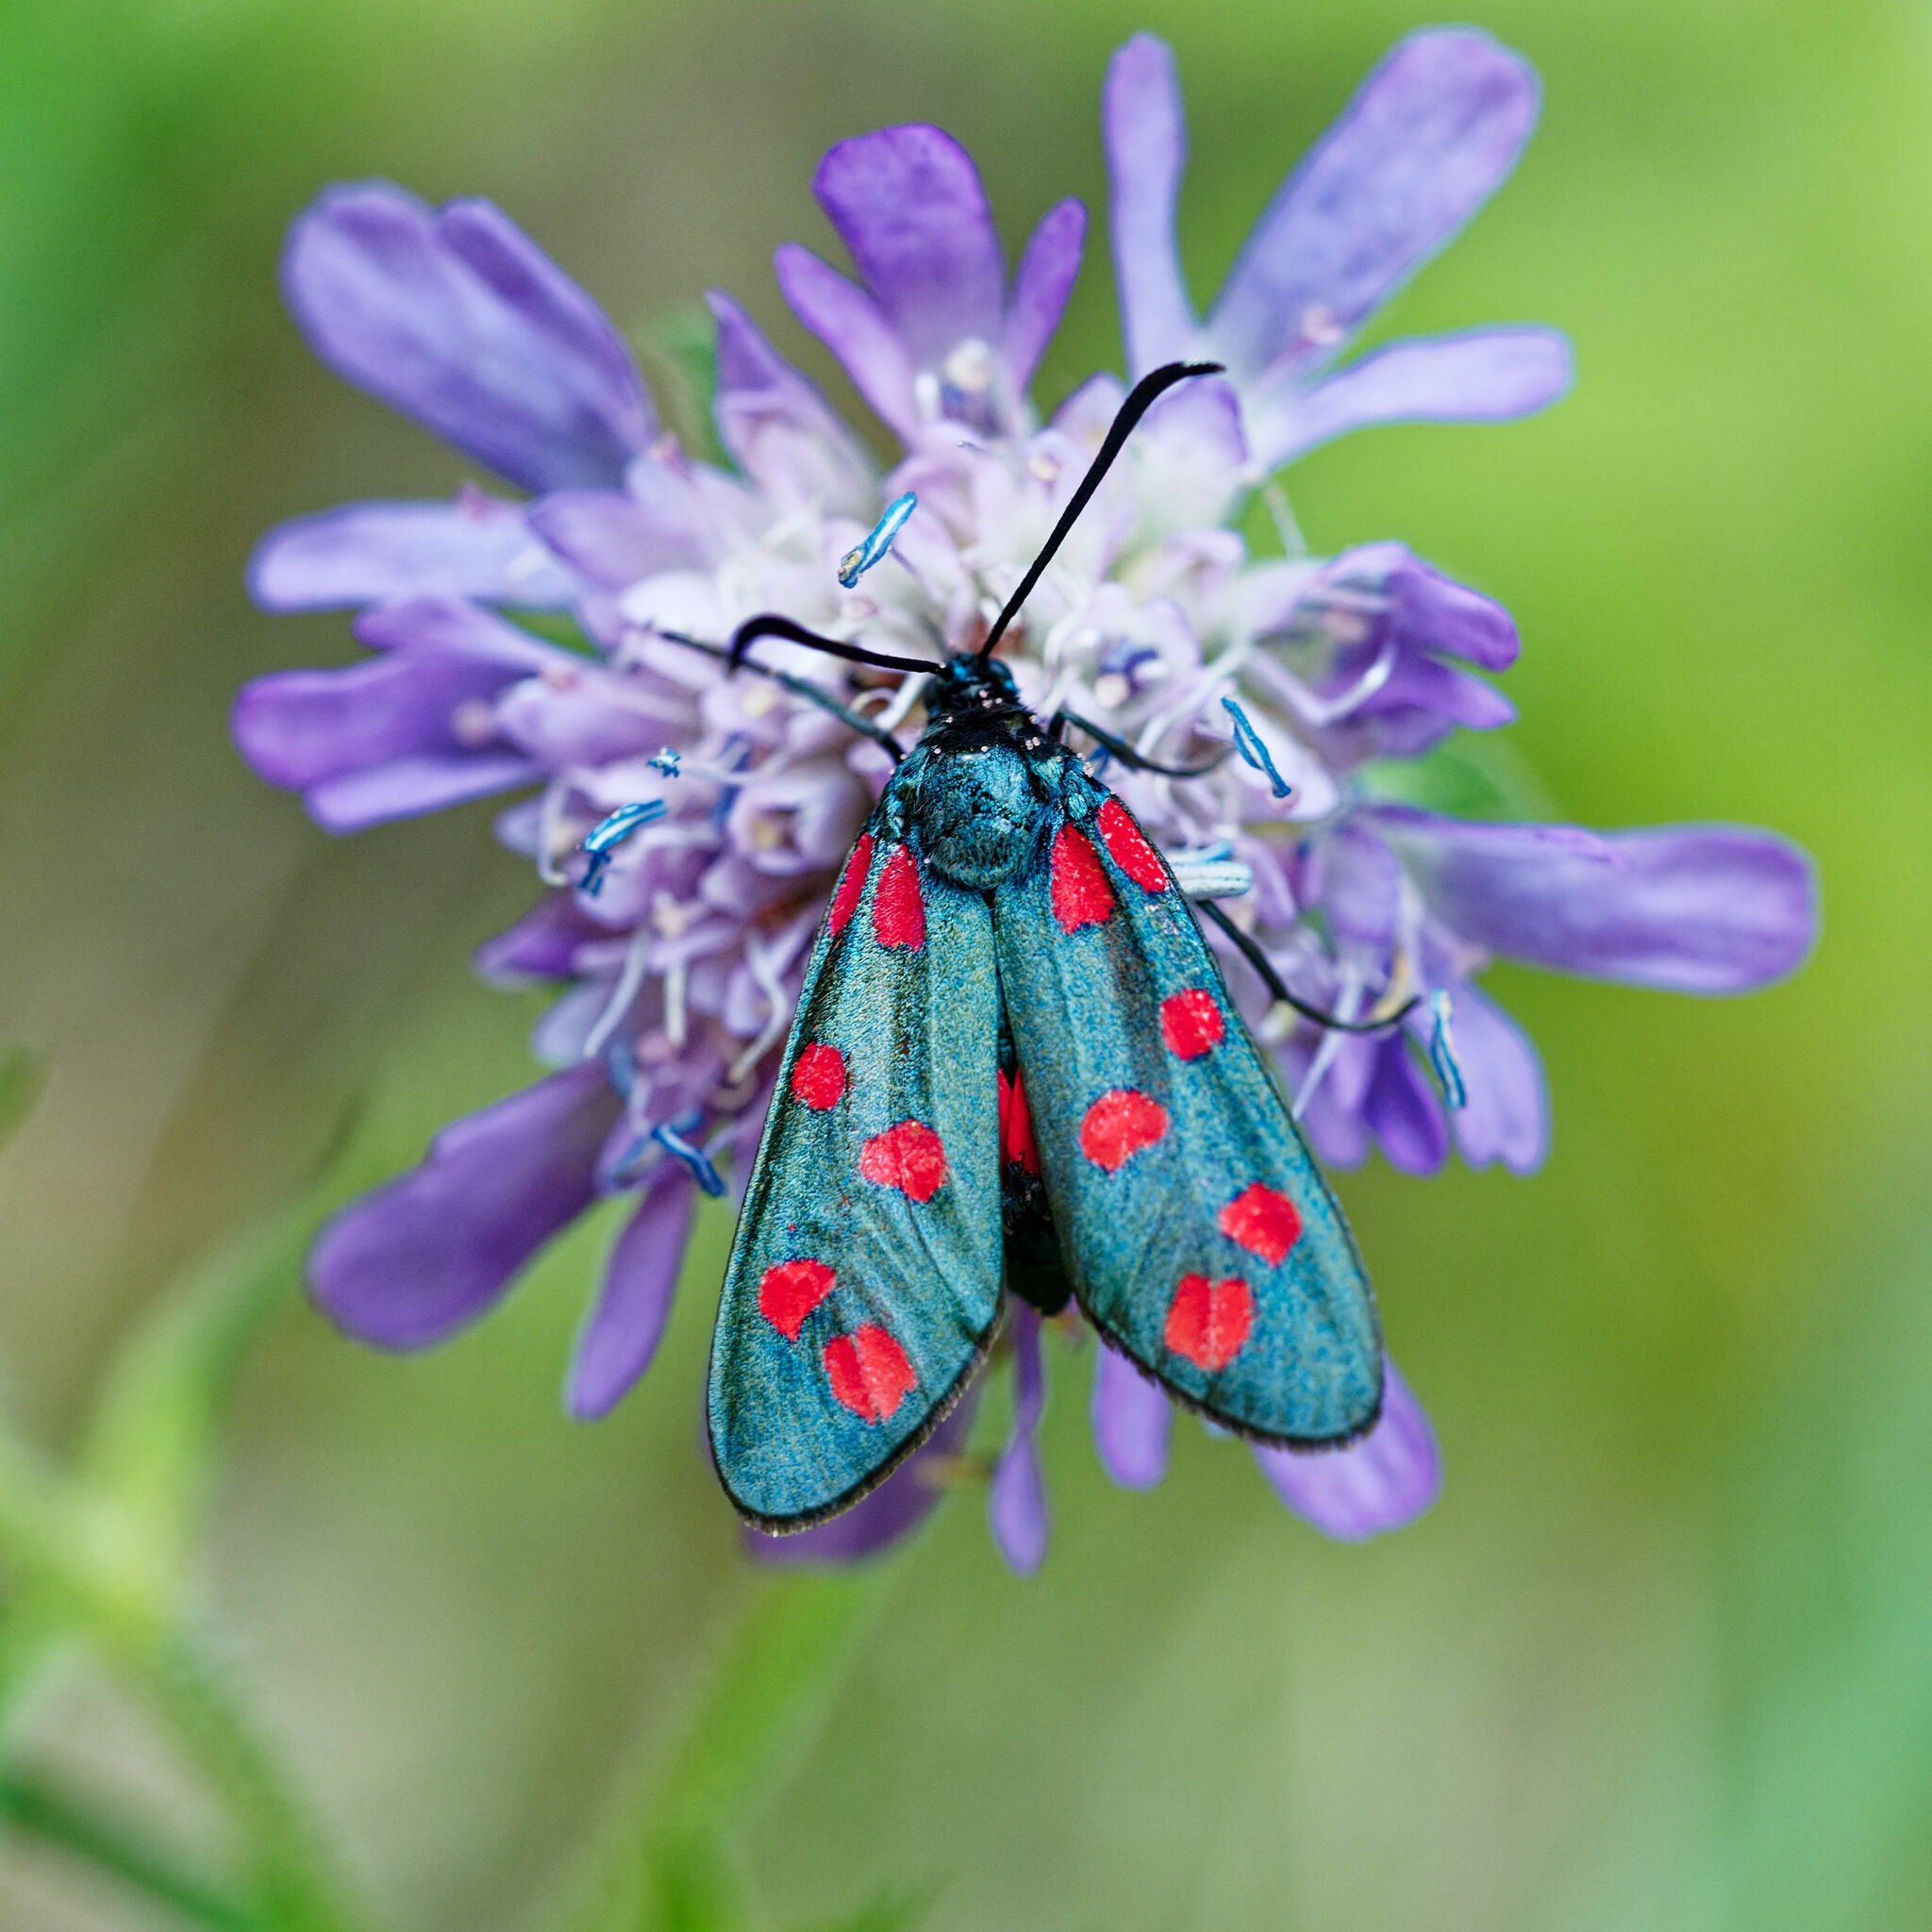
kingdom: Animalia
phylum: Arthropoda
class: Insecta
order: Lepidoptera
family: Zygaenidae
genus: Zygaena
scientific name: Zygaena transalpina
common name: Southern six spot burnet
